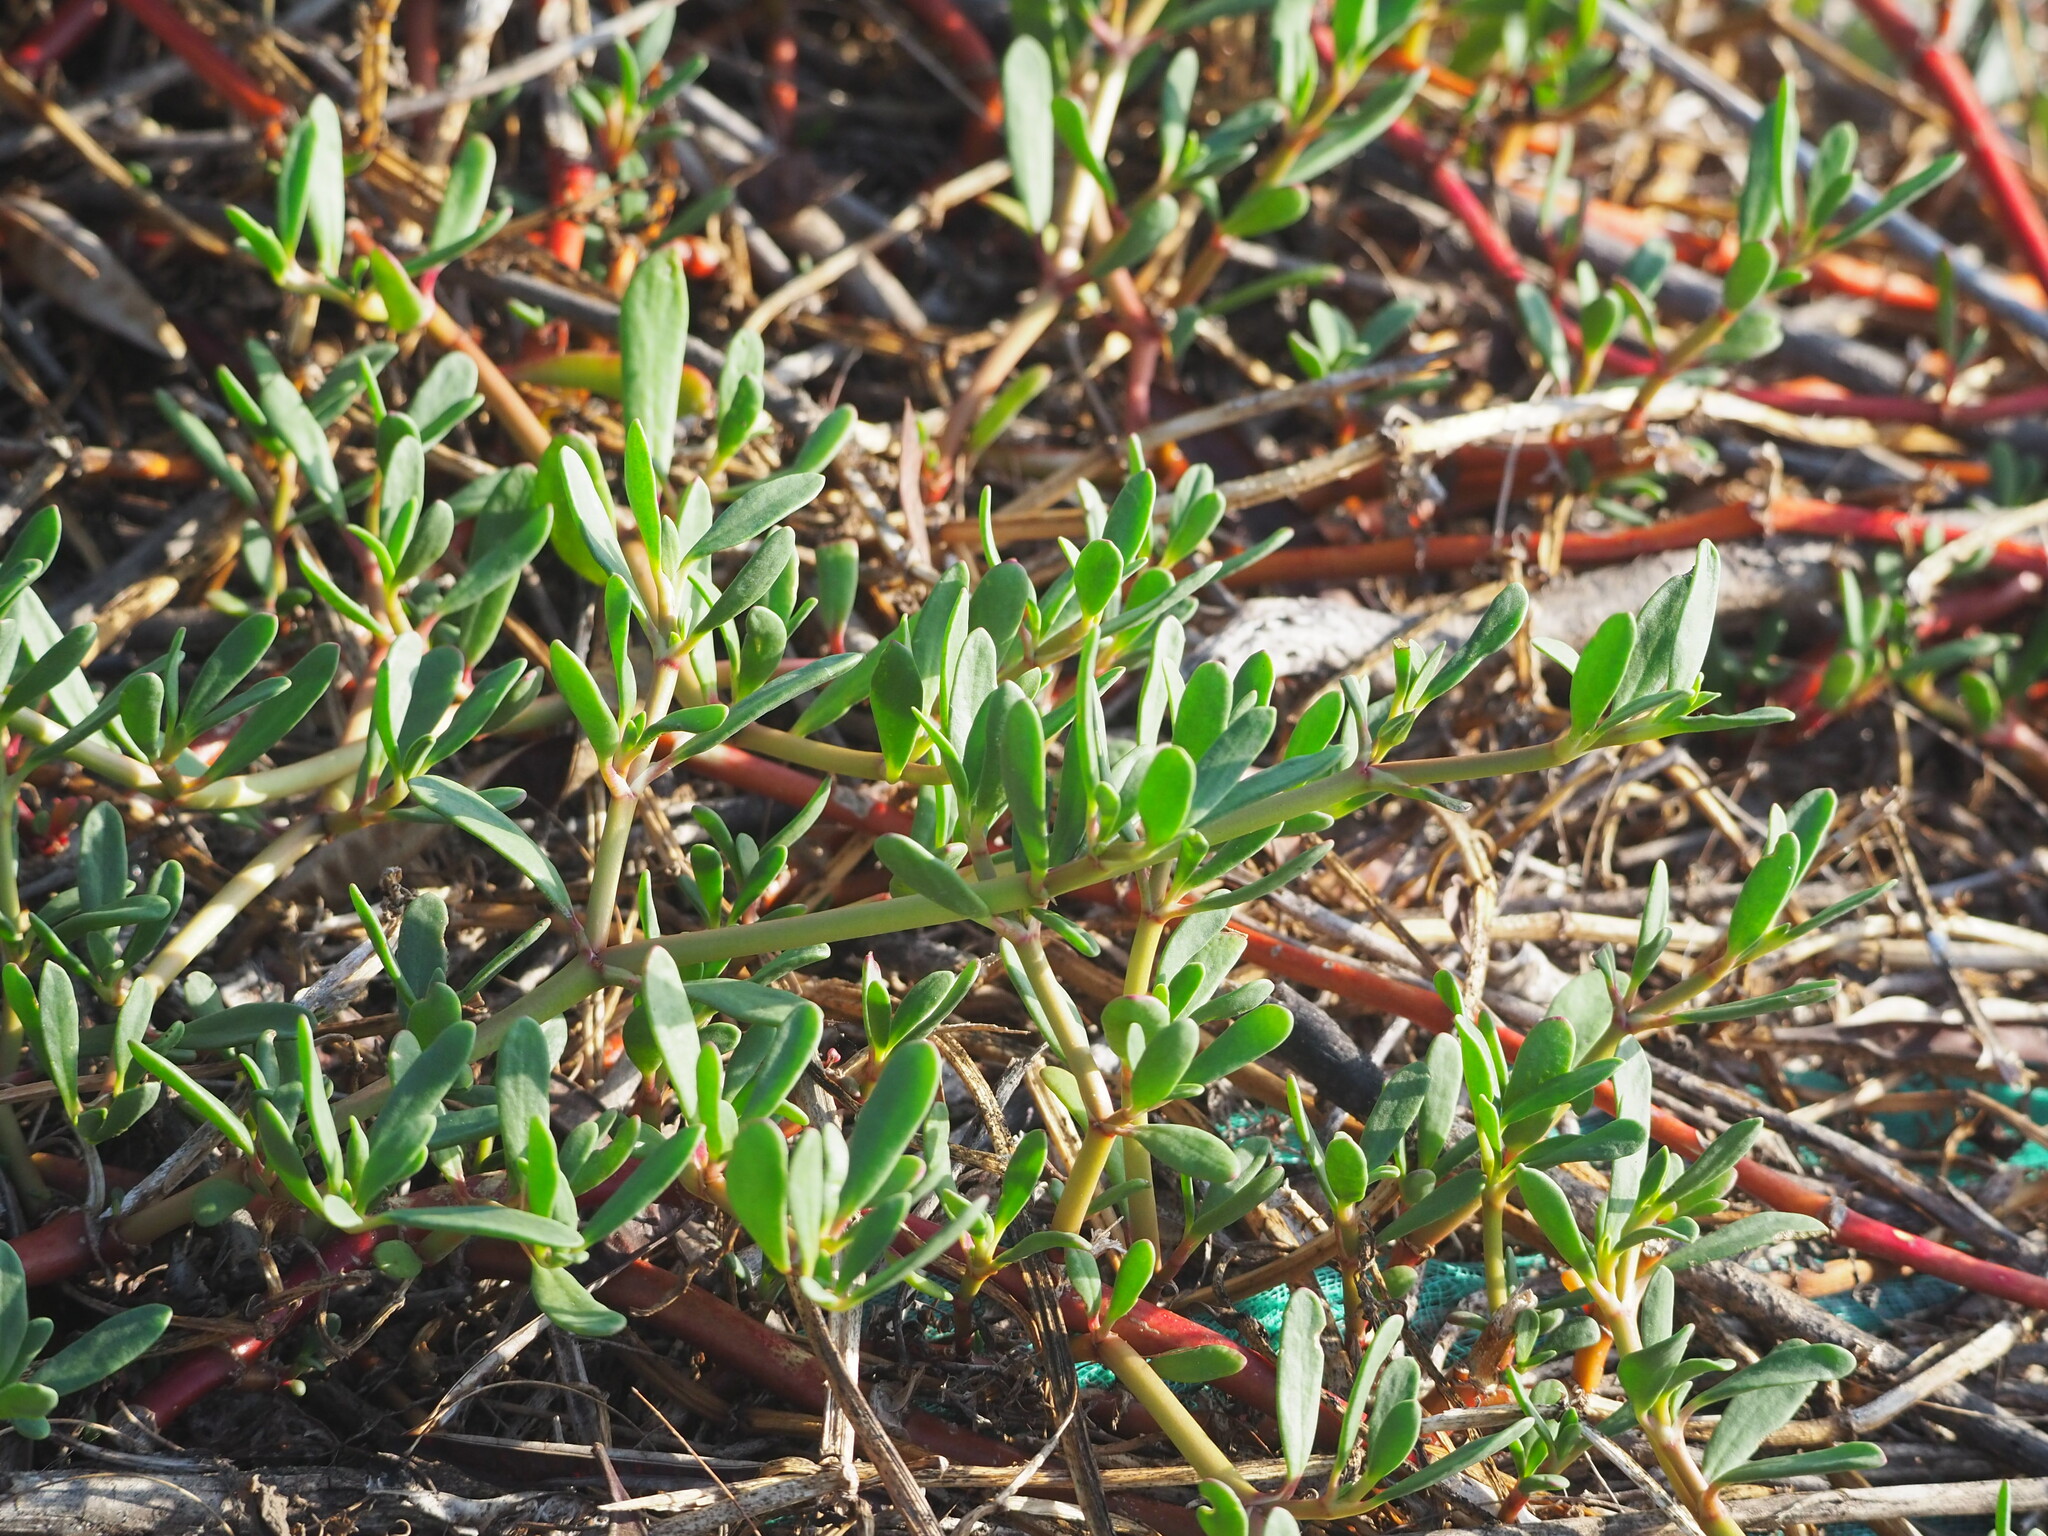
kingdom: Plantae
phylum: Tracheophyta
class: Magnoliopsida
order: Caryophyllales
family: Aizoaceae
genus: Sesuvium
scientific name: Sesuvium portulacastrum
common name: Sea-purslane
